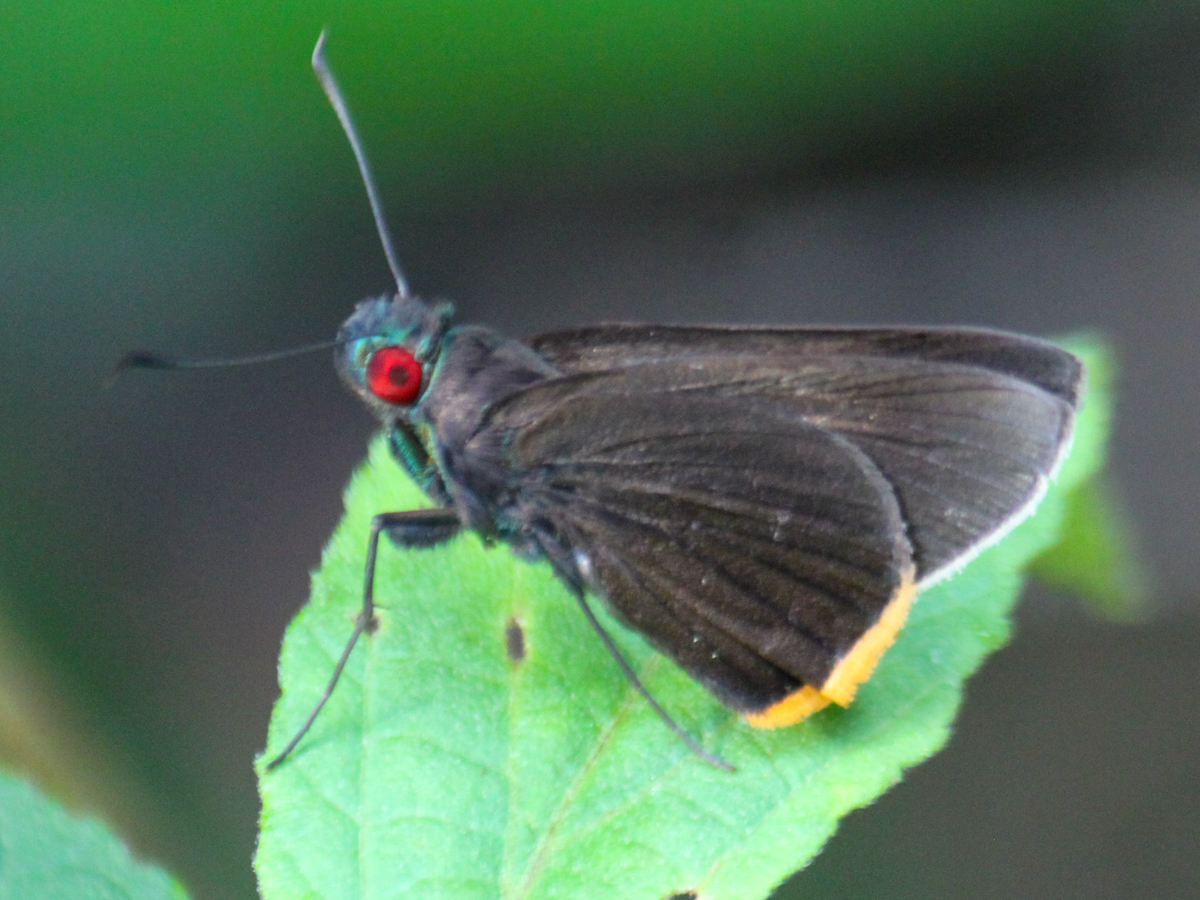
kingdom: Animalia
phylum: Arthropoda
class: Insecta
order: Lepidoptera
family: Hesperiidae
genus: Matapa
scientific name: Matapa sasivarna
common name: Black-veined redeye
